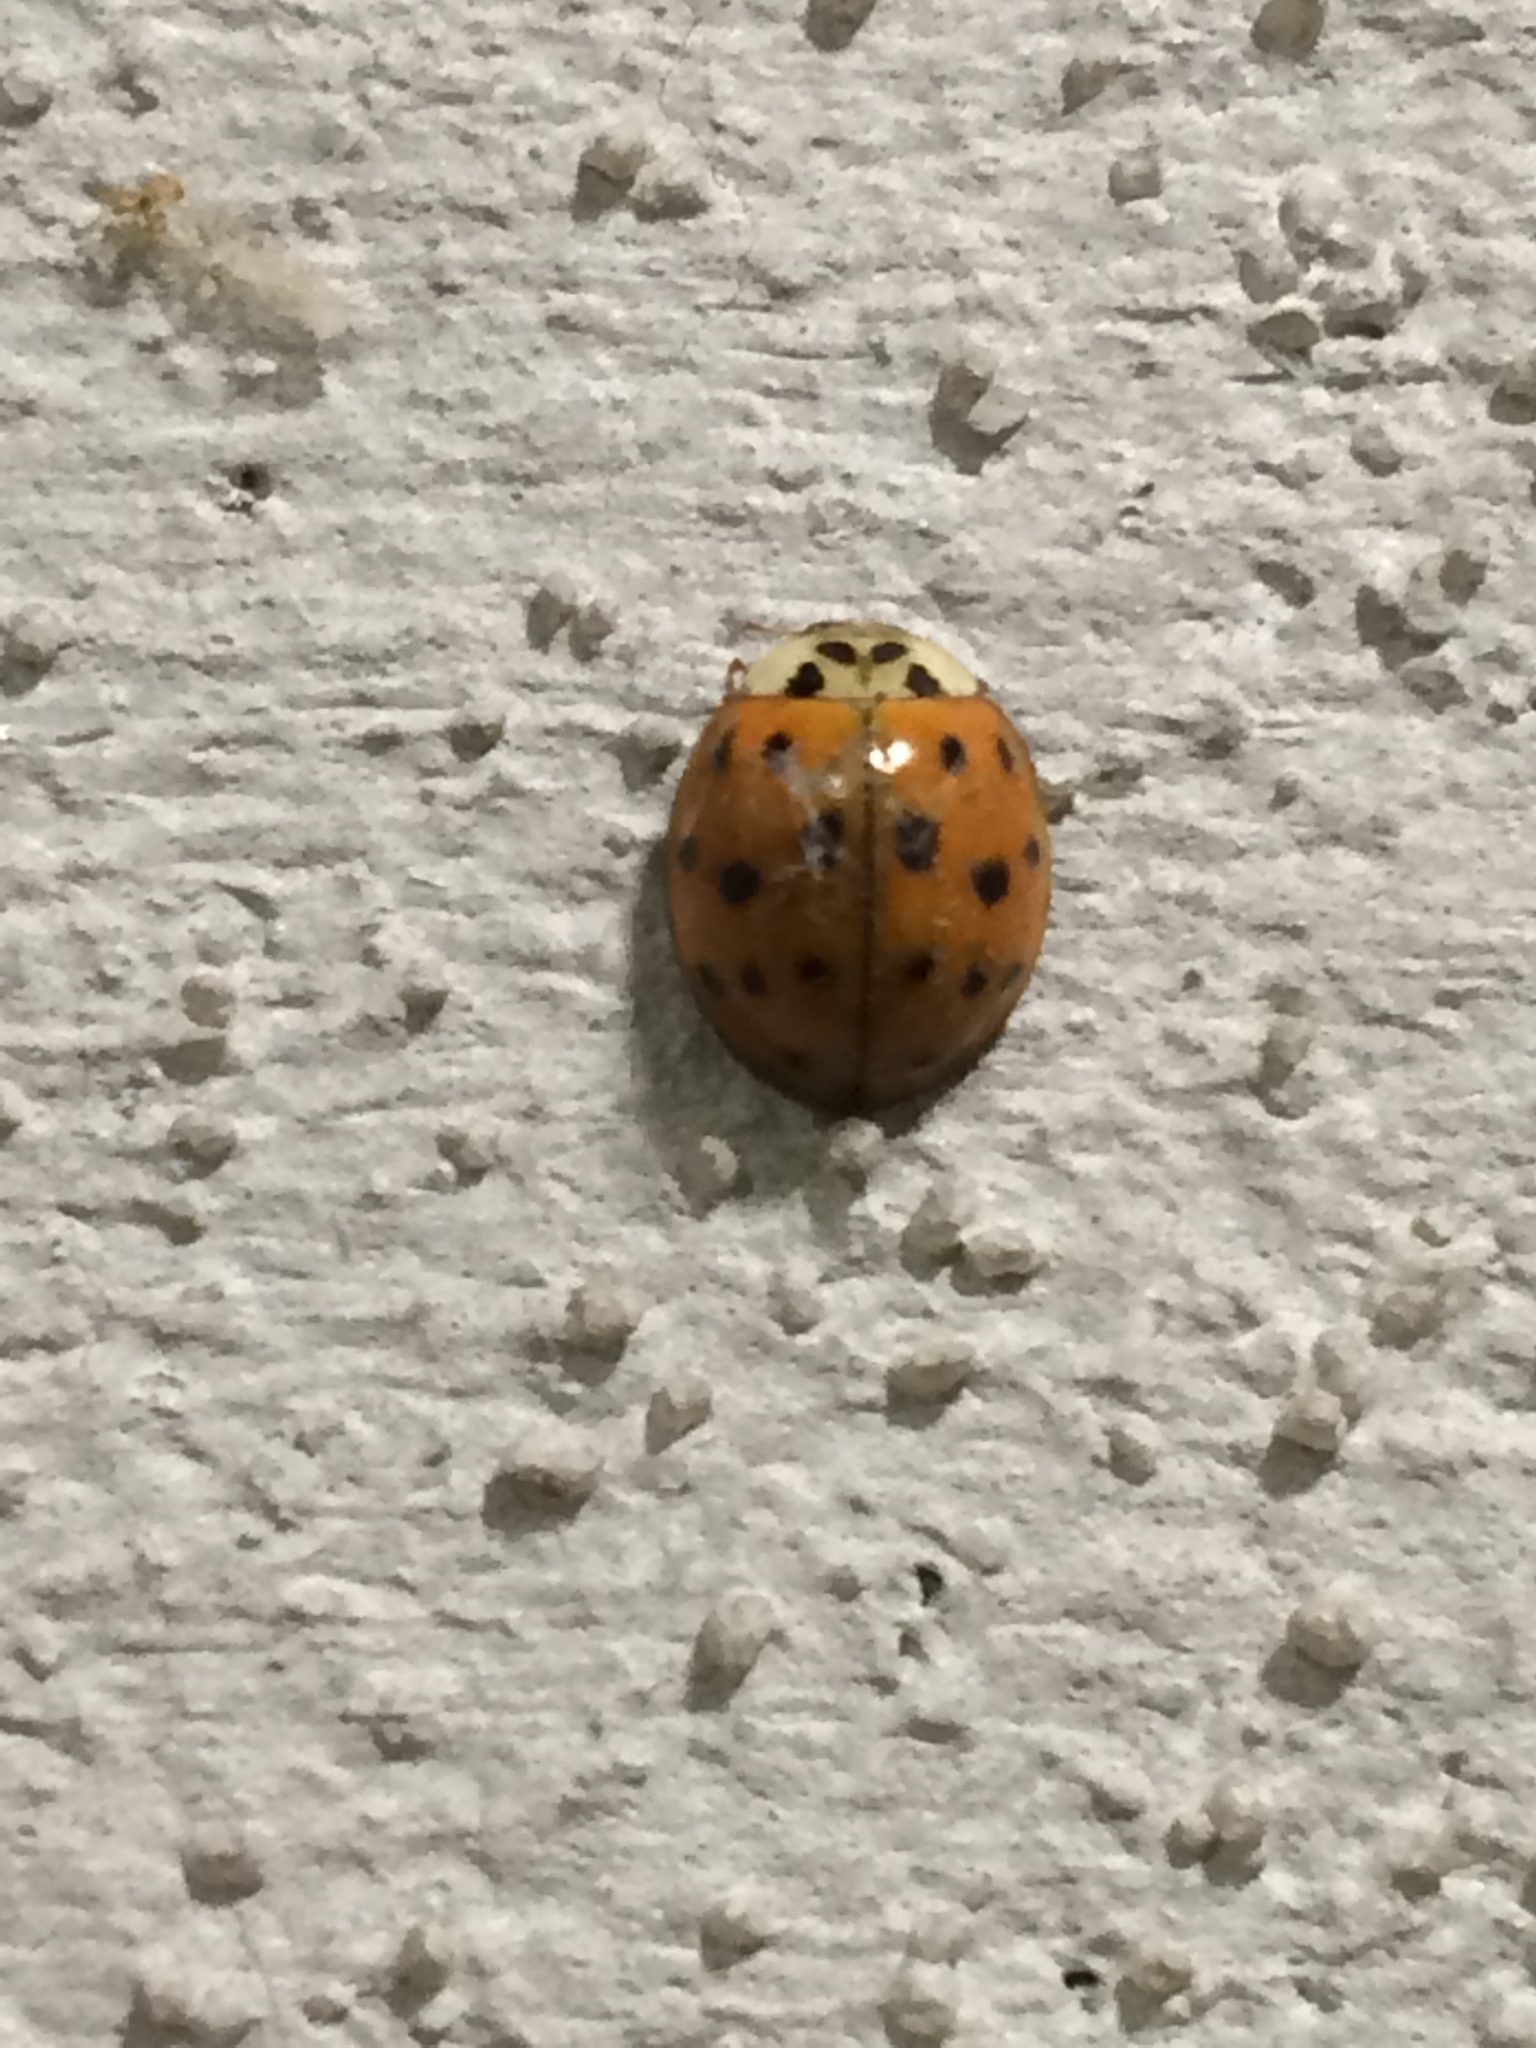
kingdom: Animalia
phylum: Arthropoda
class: Insecta
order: Coleoptera
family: Coccinellidae
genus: Harmonia
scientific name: Harmonia axyridis
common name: Harlequin ladybird
